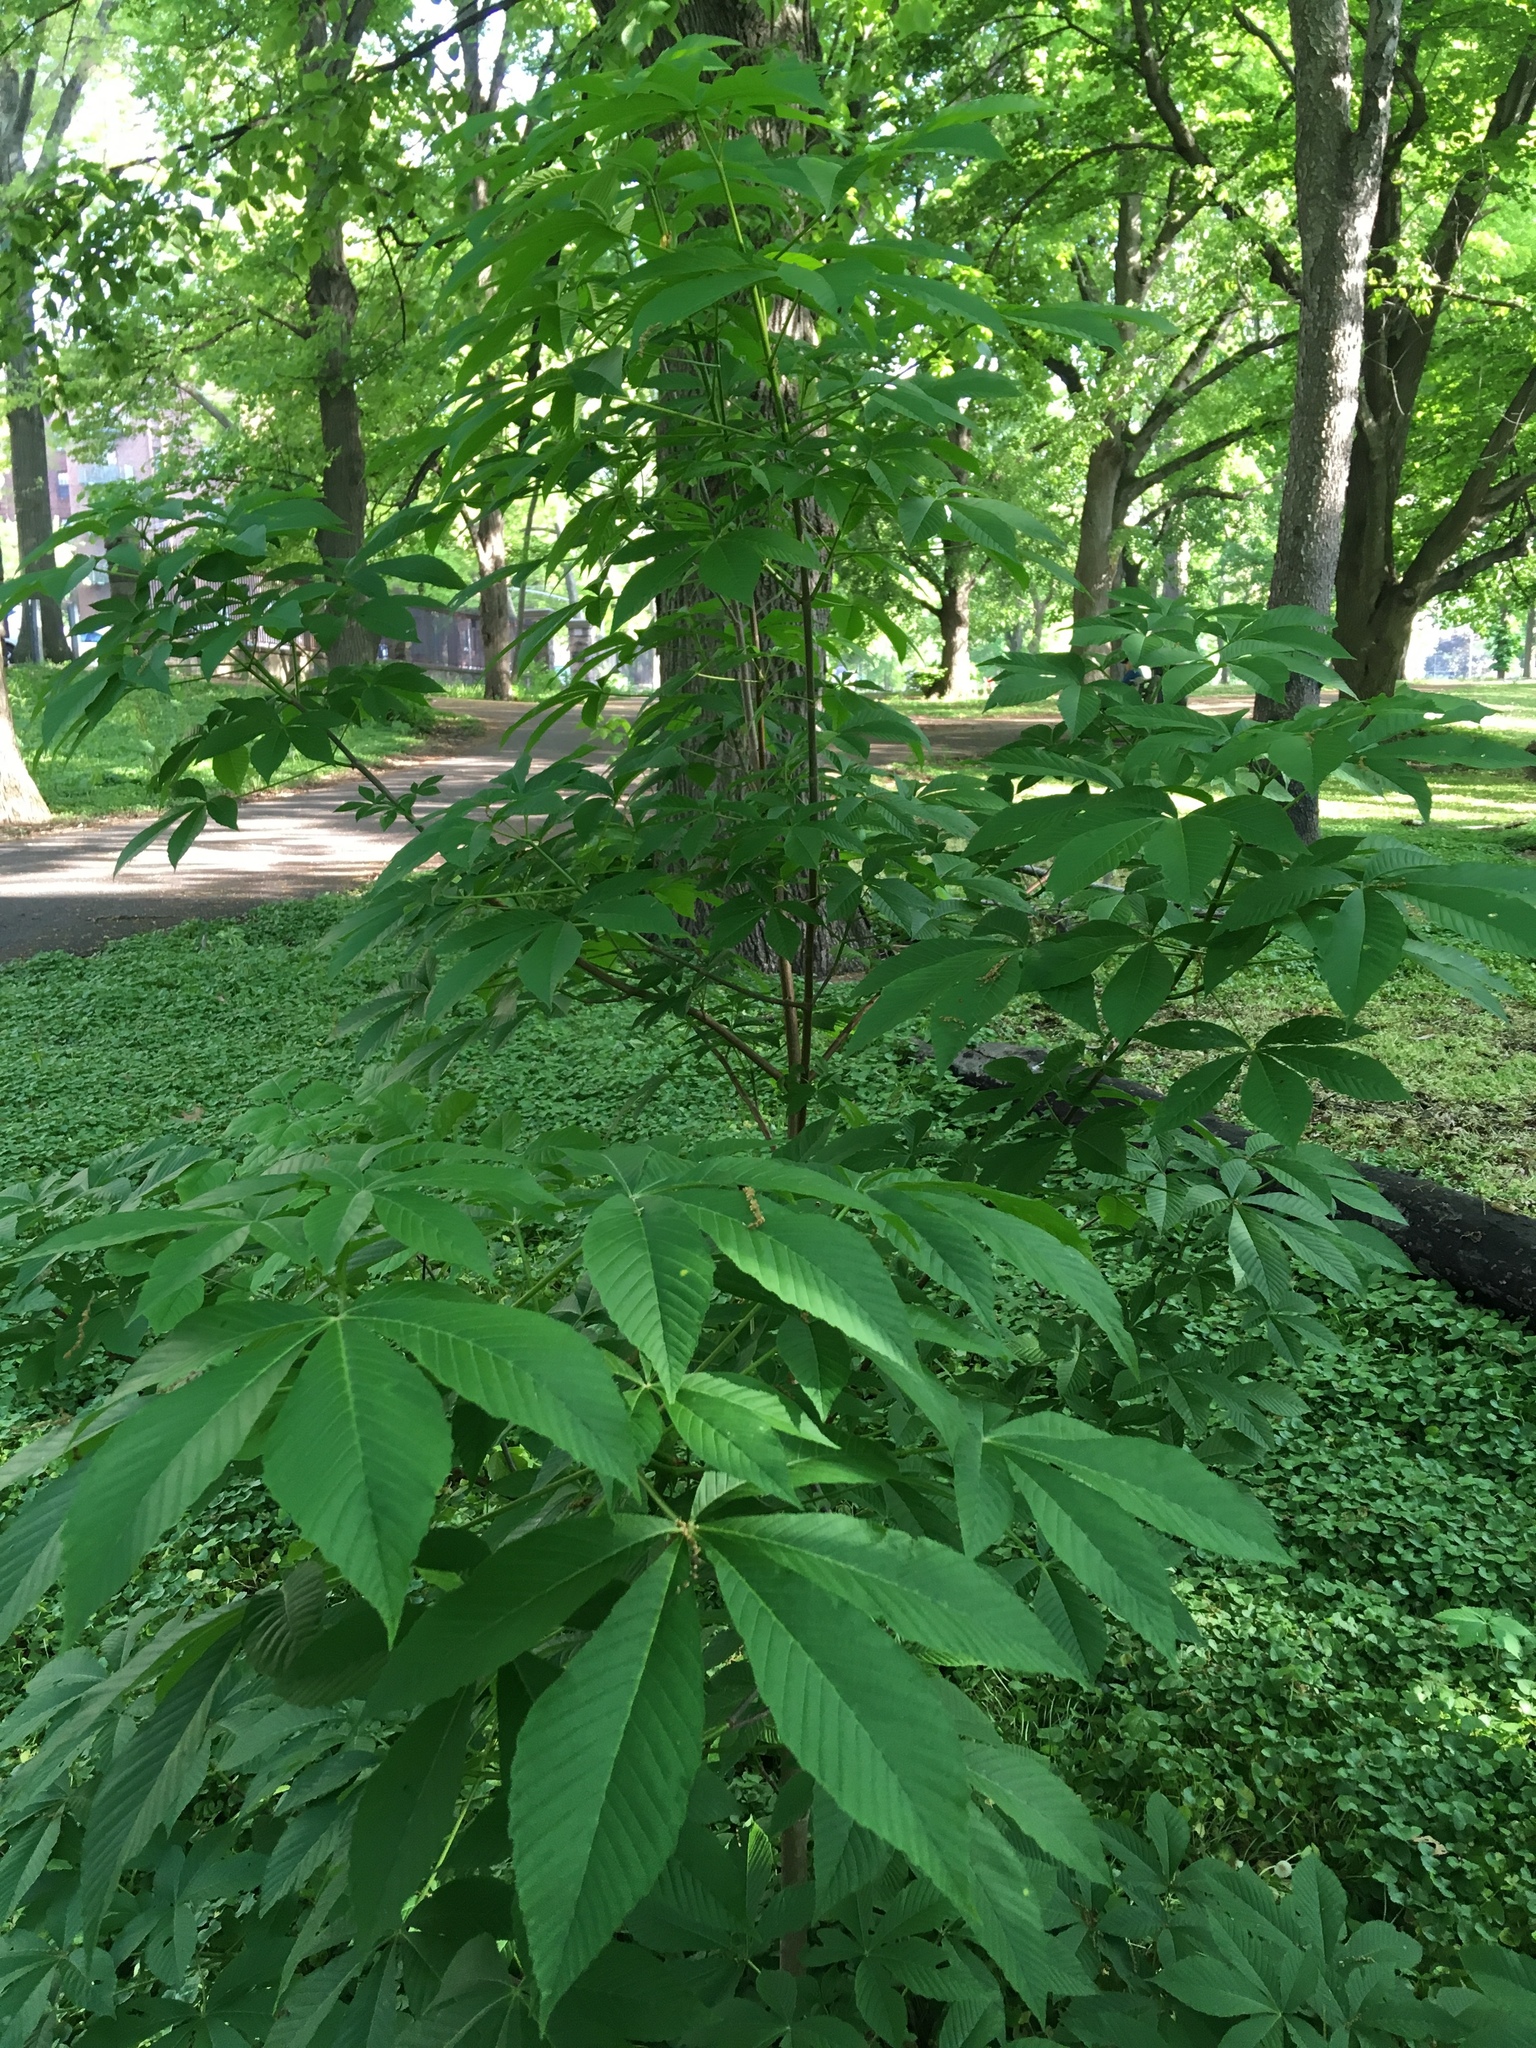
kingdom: Plantae
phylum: Tracheophyta
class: Magnoliopsida
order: Sapindales
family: Sapindaceae
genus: Aesculus
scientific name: Aesculus flava
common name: Yellow buckeye
